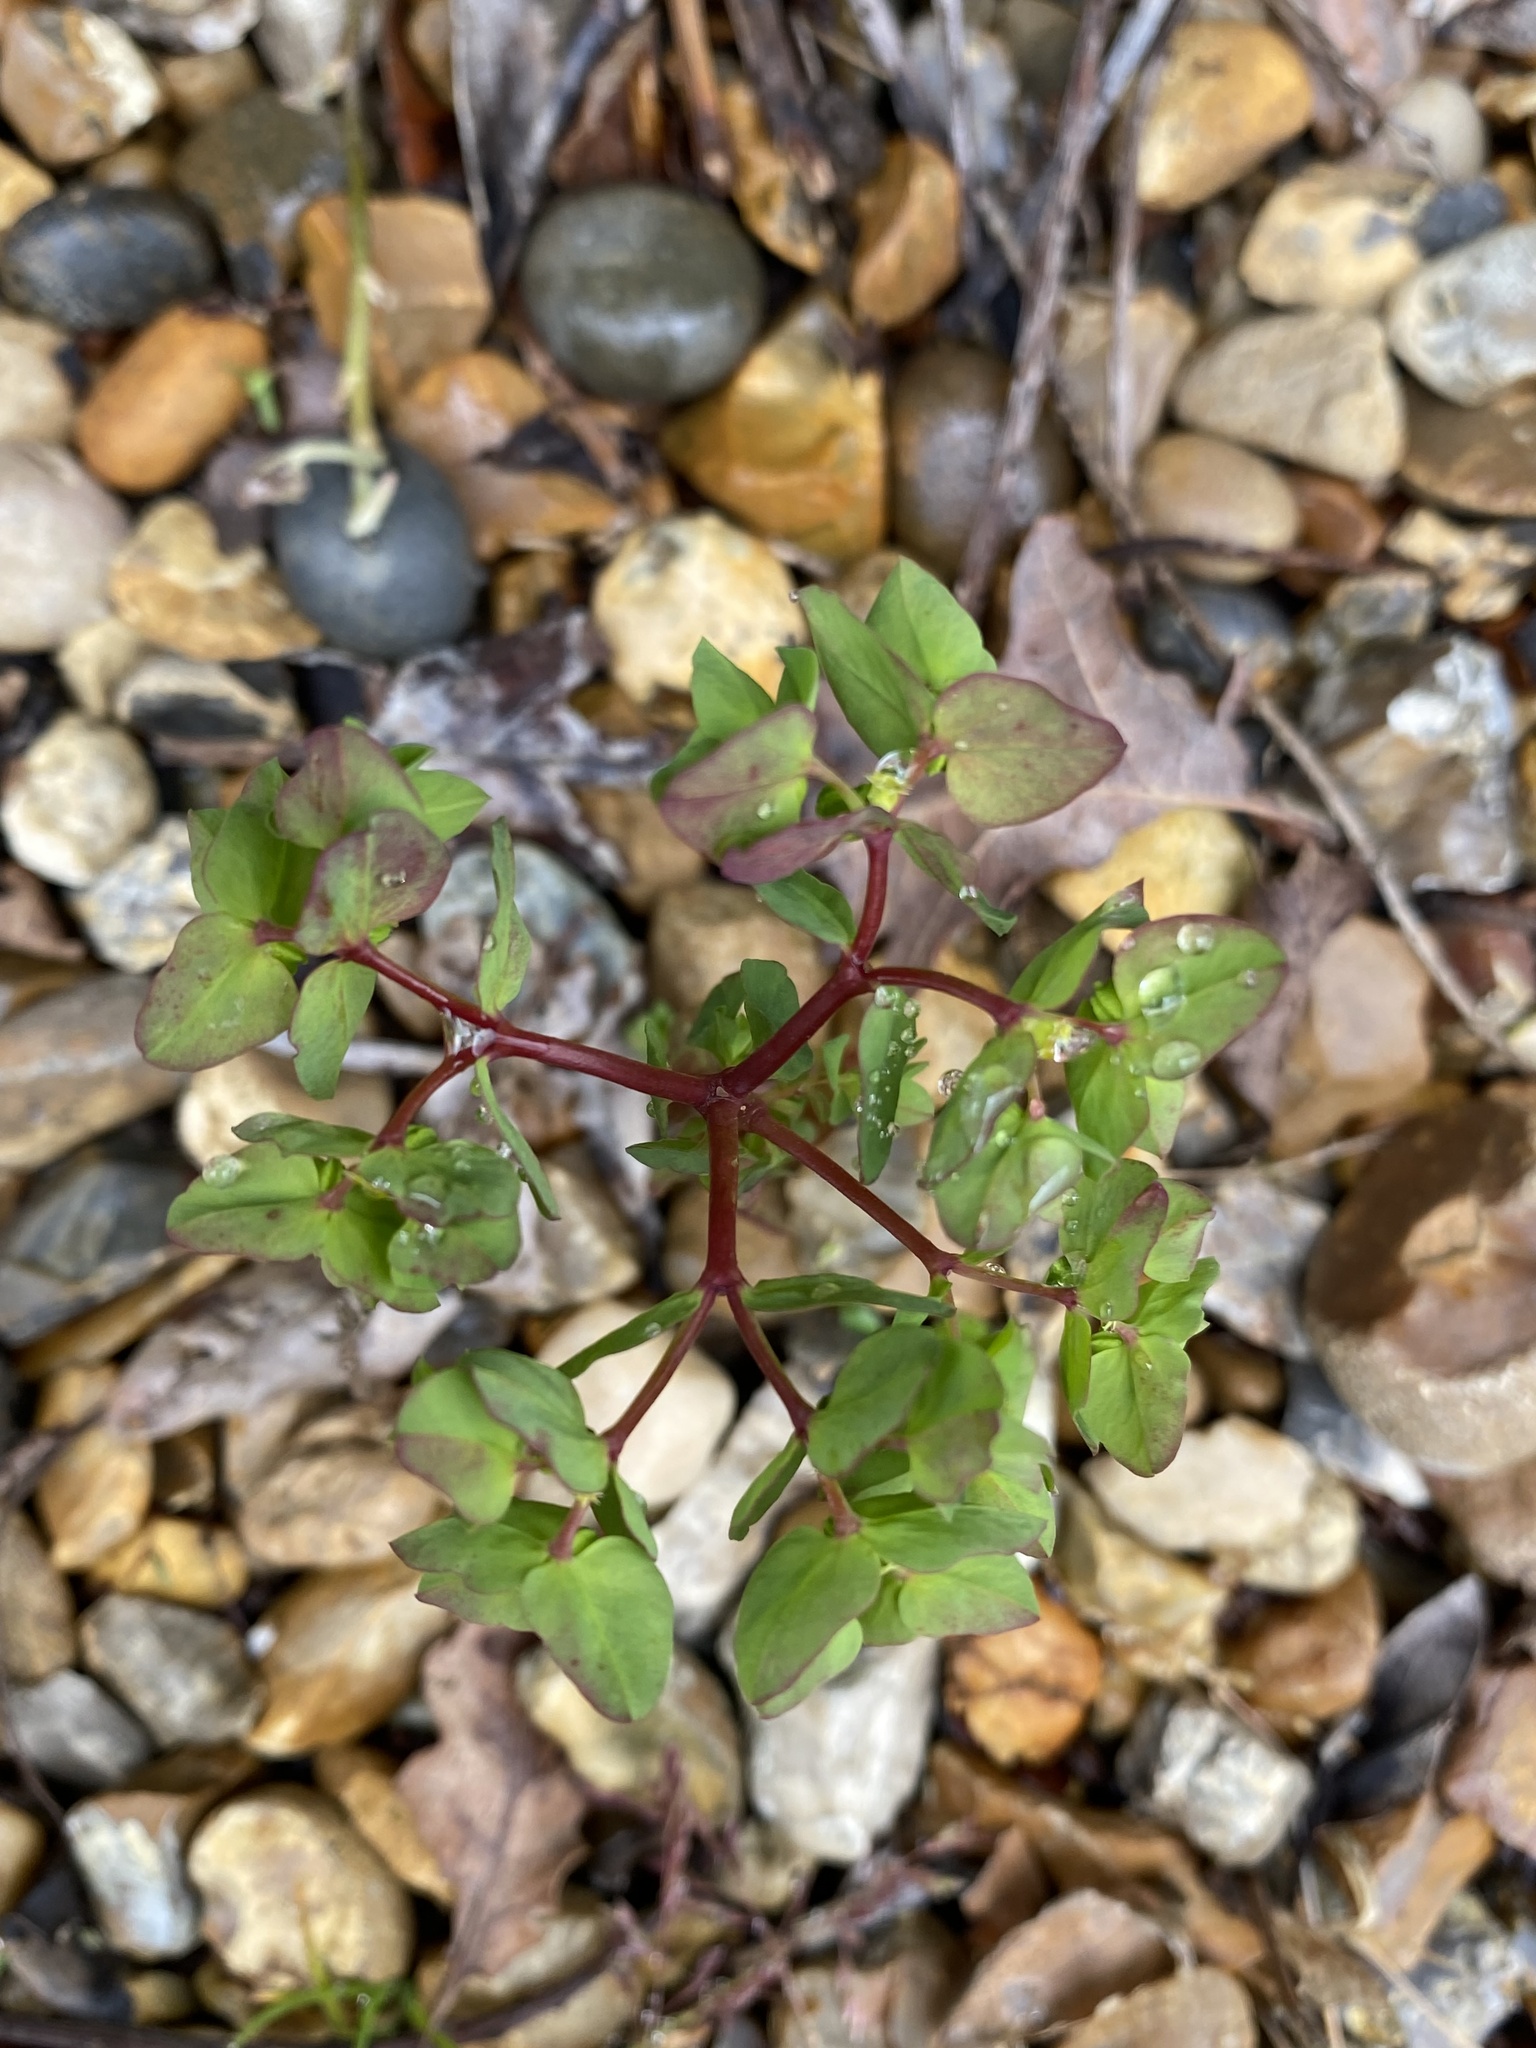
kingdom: Plantae
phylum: Tracheophyta
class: Magnoliopsida
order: Malpighiales
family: Euphorbiaceae
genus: Euphorbia
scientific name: Euphorbia peplus
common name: Petty spurge
